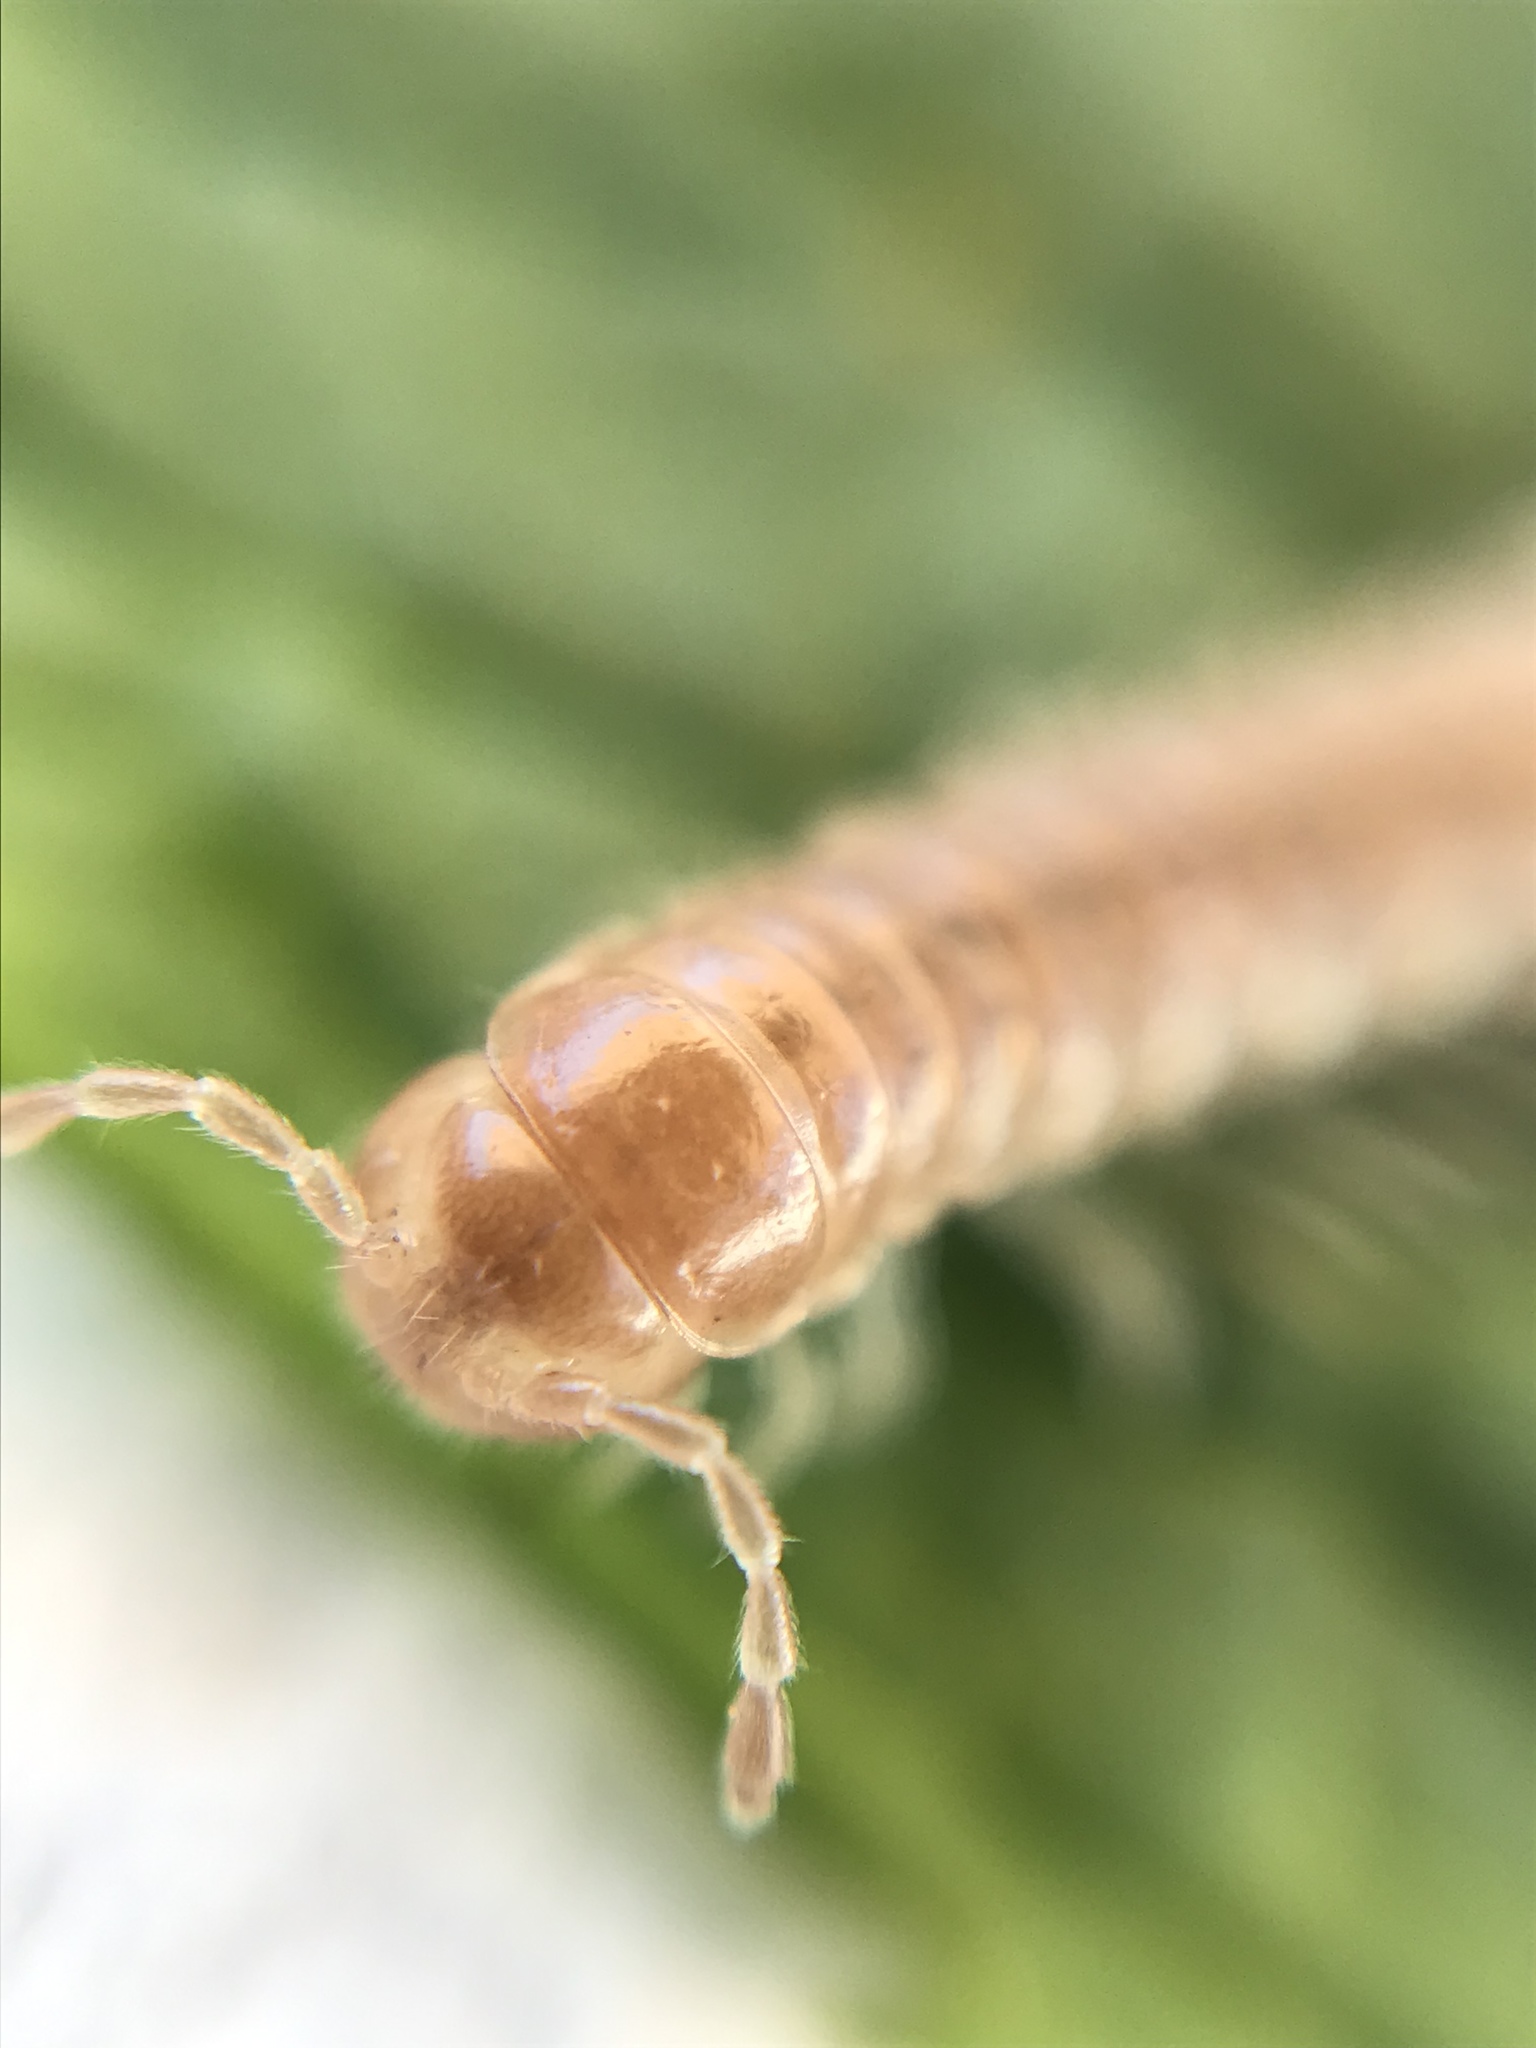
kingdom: Animalia
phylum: Arthropoda
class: Diplopoda
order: Polydesmida
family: Paradoxosomatidae
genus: Oxidus
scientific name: Oxidus gracilis
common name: Greenhouse millipede
